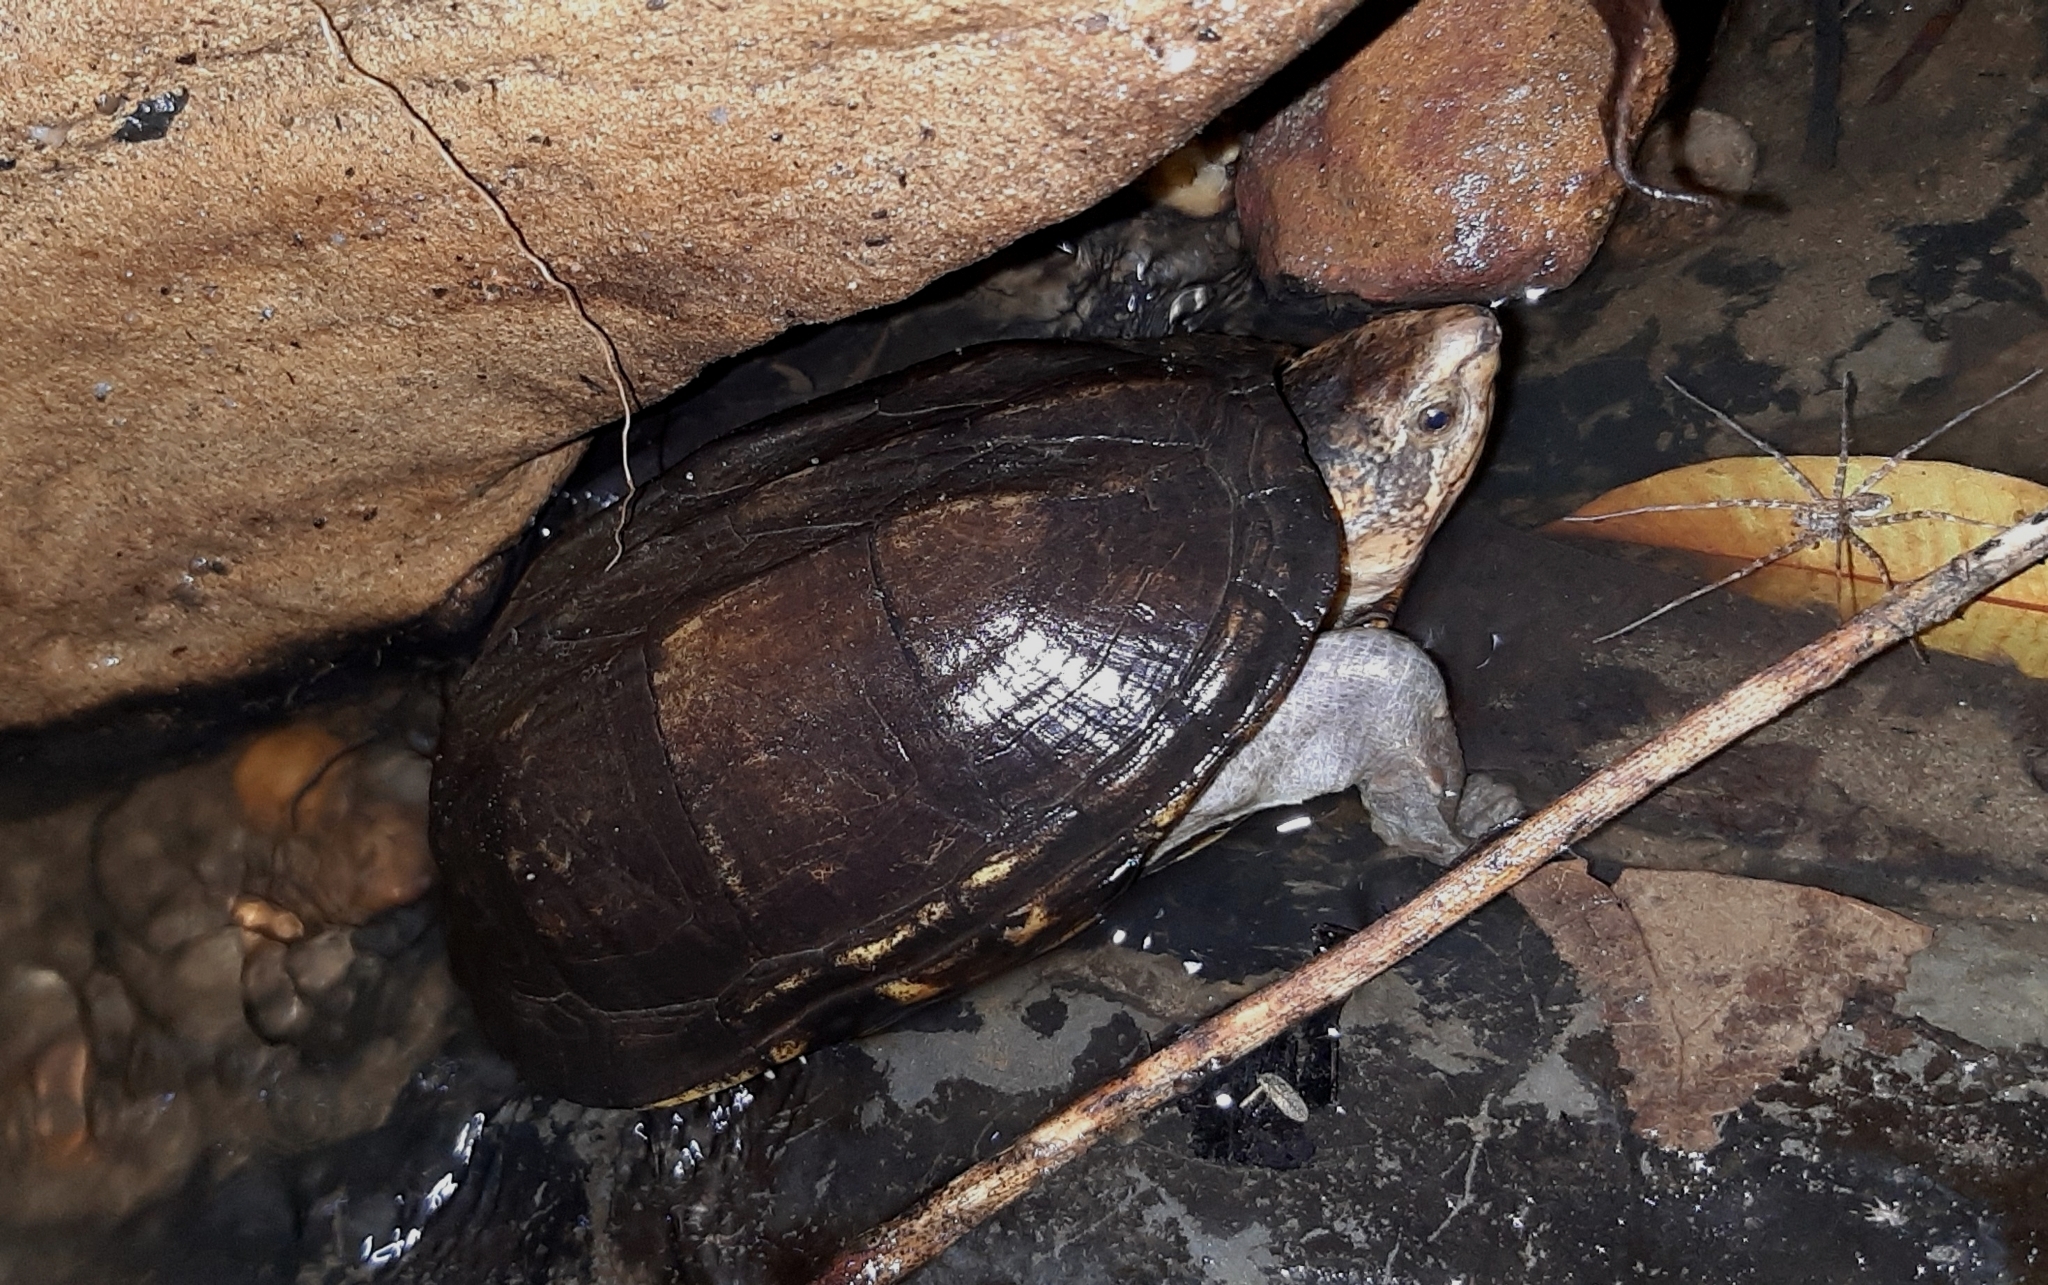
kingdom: Animalia
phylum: Chordata
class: Testudines
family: Kinosternidae
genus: Kinosternon
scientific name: Kinosternon scorpioides
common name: Scorpion mud turtle
